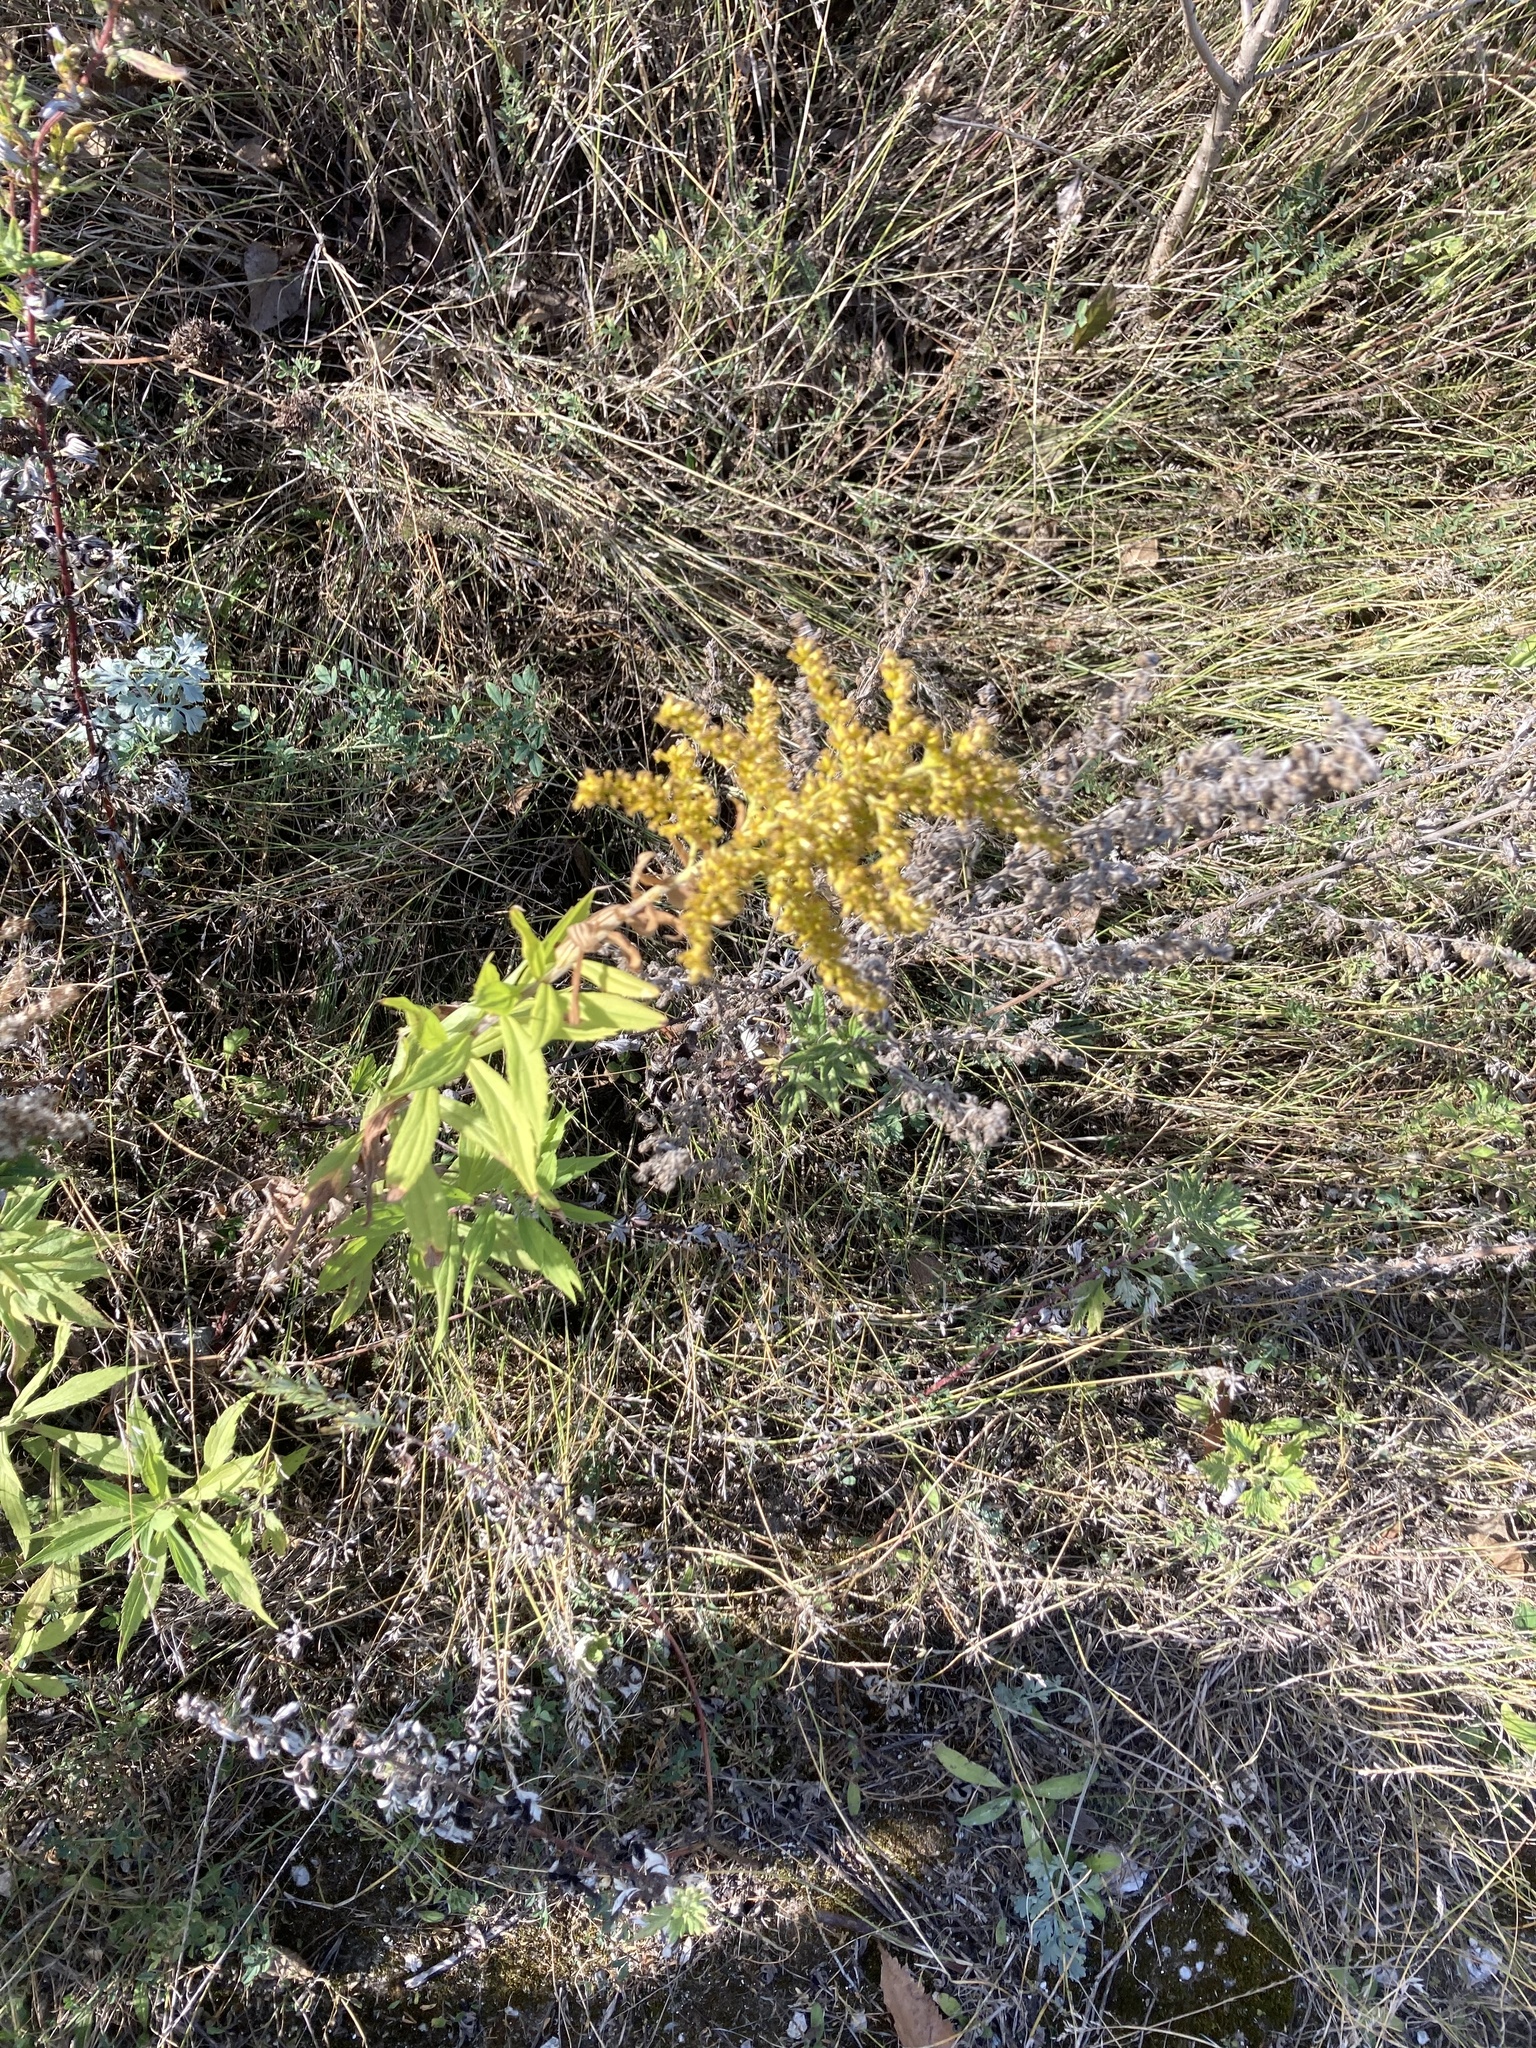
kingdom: Plantae
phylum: Tracheophyta
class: Magnoliopsida
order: Asterales
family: Asteraceae
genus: Solidago
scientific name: Solidago canadensis
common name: Canada goldenrod
